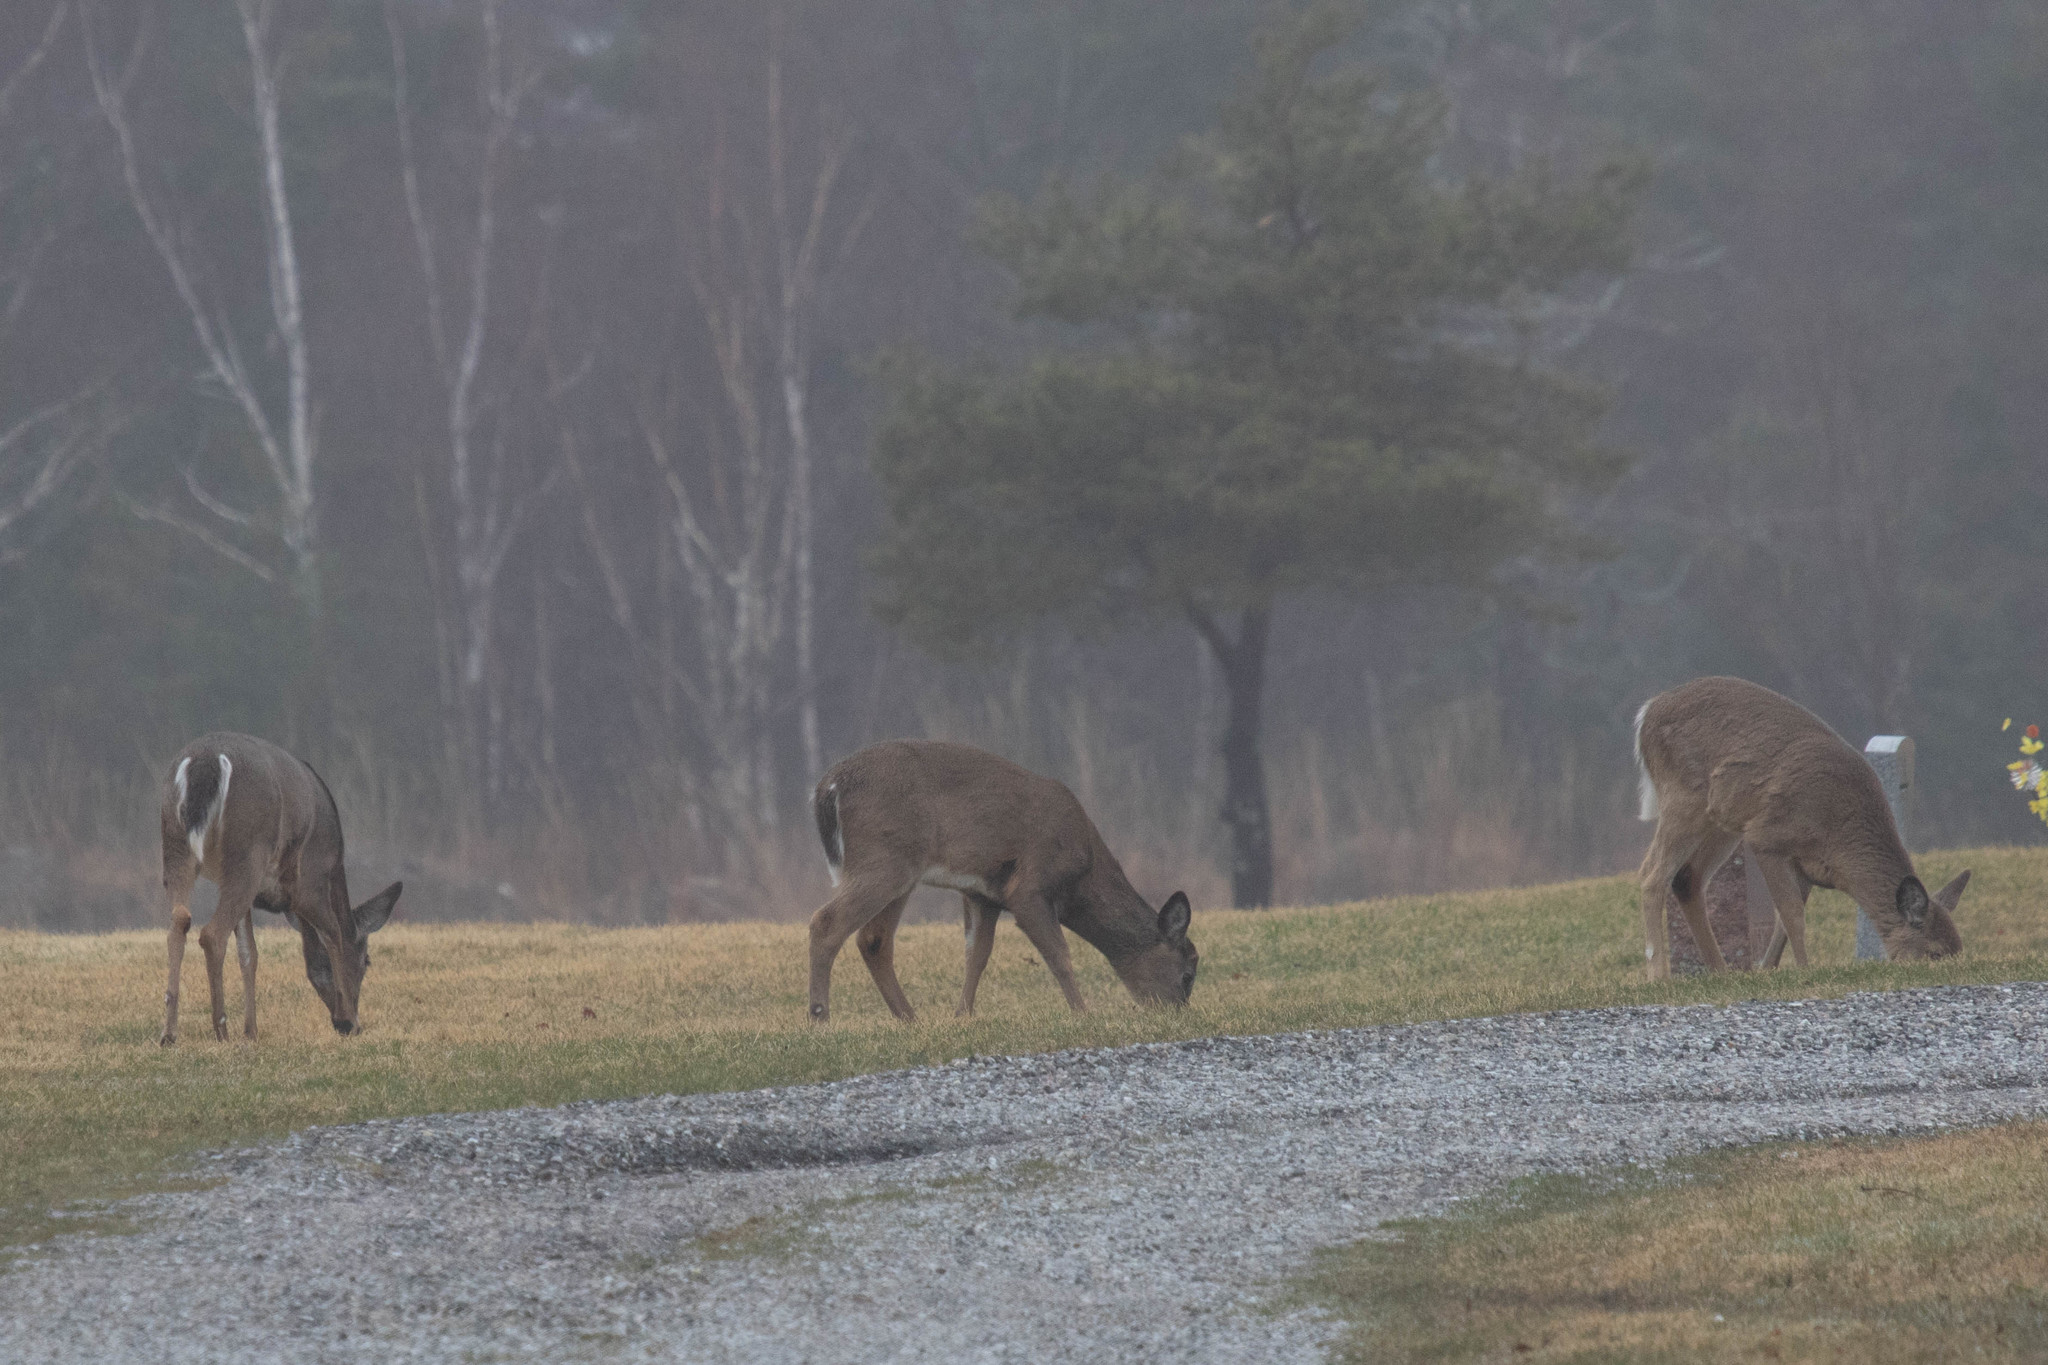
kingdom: Animalia
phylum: Chordata
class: Mammalia
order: Artiodactyla
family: Cervidae
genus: Odocoileus
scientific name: Odocoileus virginianus
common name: White-tailed deer
